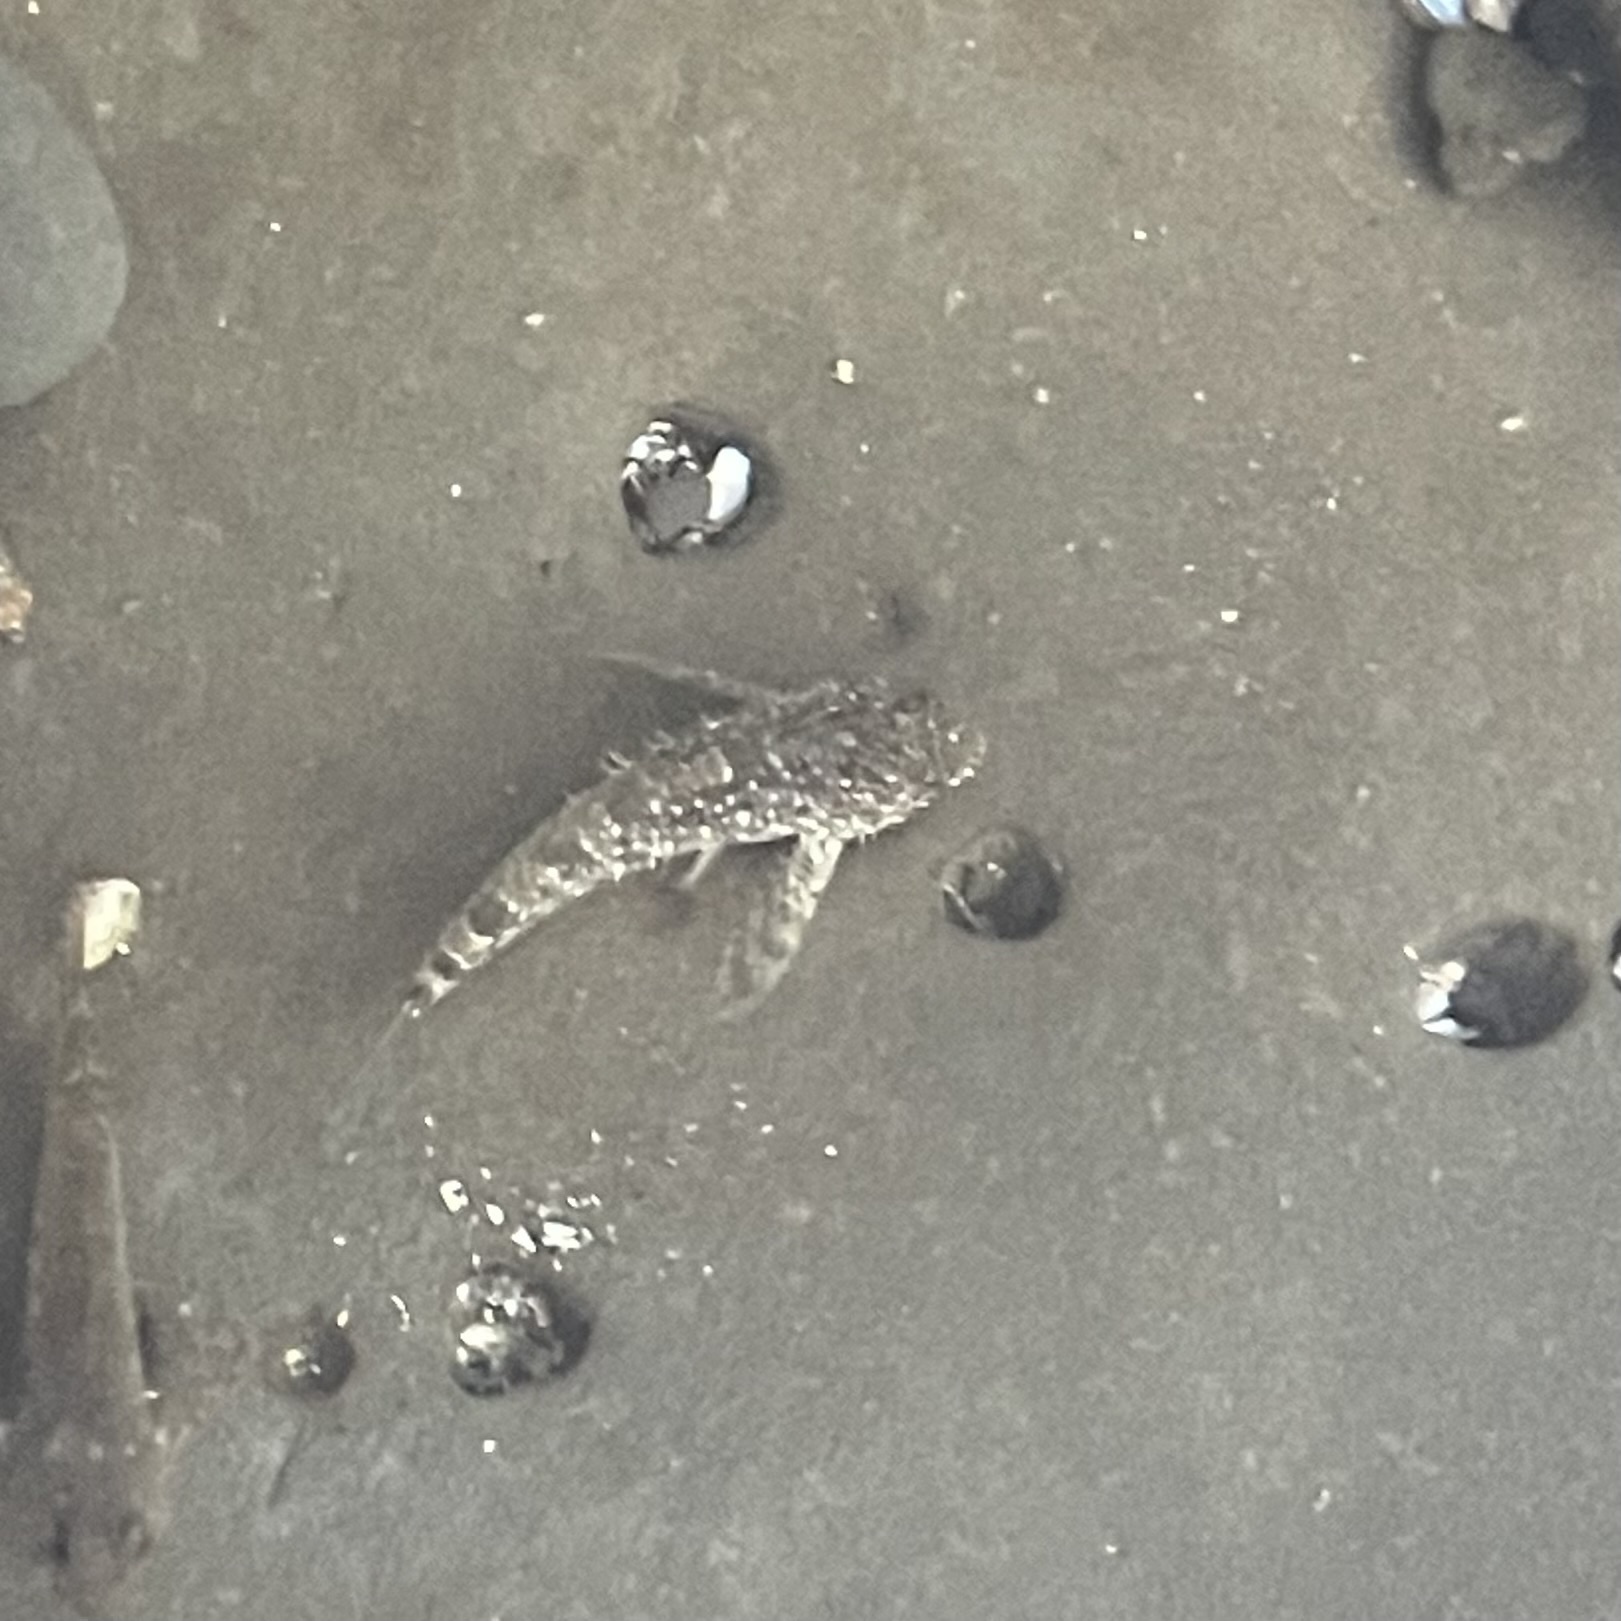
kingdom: Animalia
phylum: Chordata
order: Scorpaeniformes
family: Cottidae
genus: Clinocottus
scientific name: Clinocottus analis
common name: Woolly sculpin
